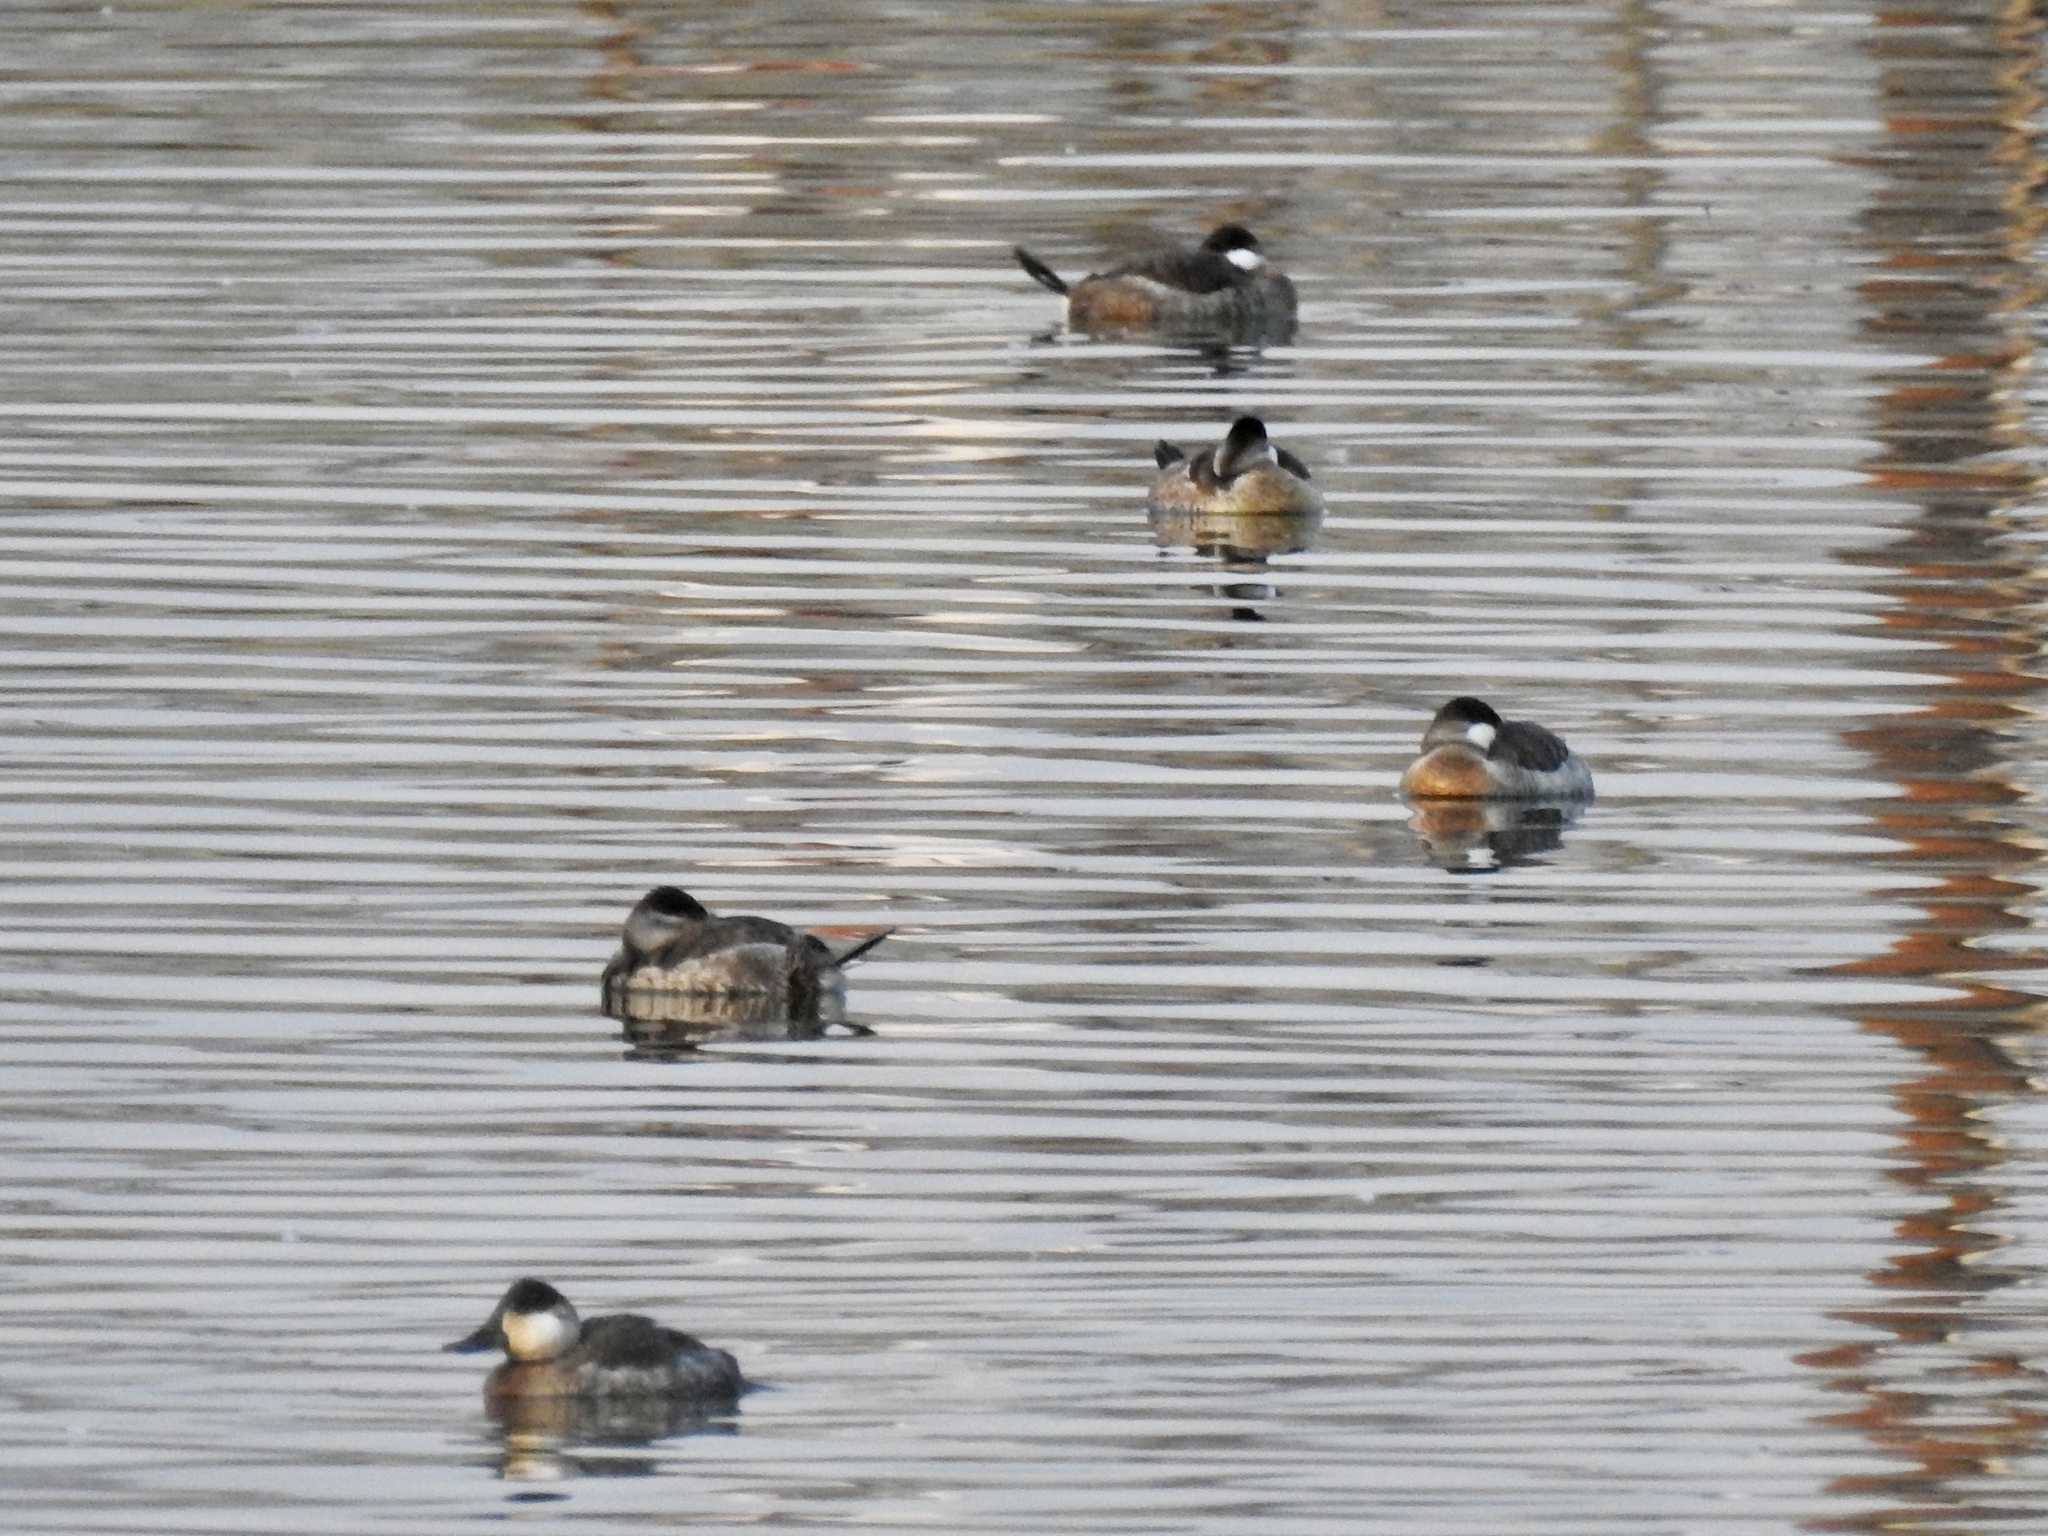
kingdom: Animalia
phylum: Chordata
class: Aves
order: Anseriformes
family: Anatidae
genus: Oxyura
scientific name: Oxyura jamaicensis
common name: Ruddy duck
